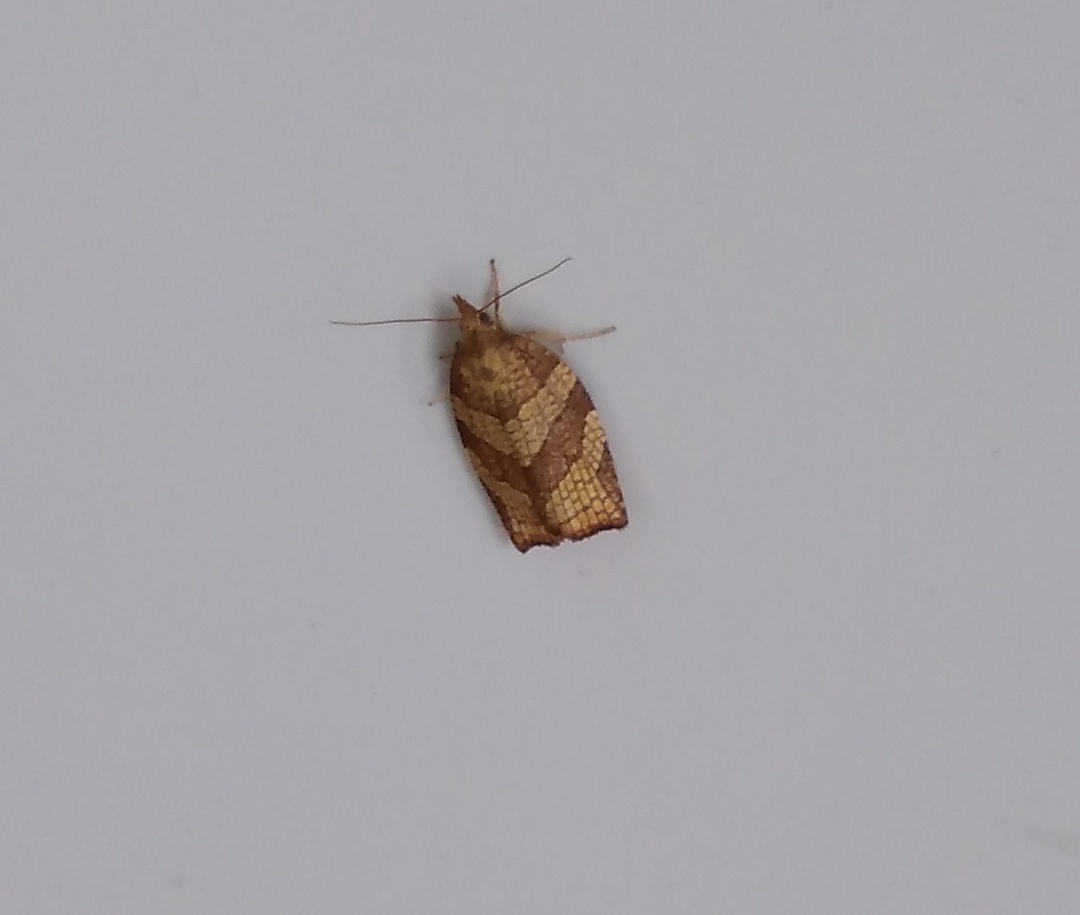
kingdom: Animalia
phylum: Arthropoda
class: Insecta
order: Lepidoptera
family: Tortricidae
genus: Pandemis
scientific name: Pandemis corylana
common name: Chequered fruit-tree tortrix
